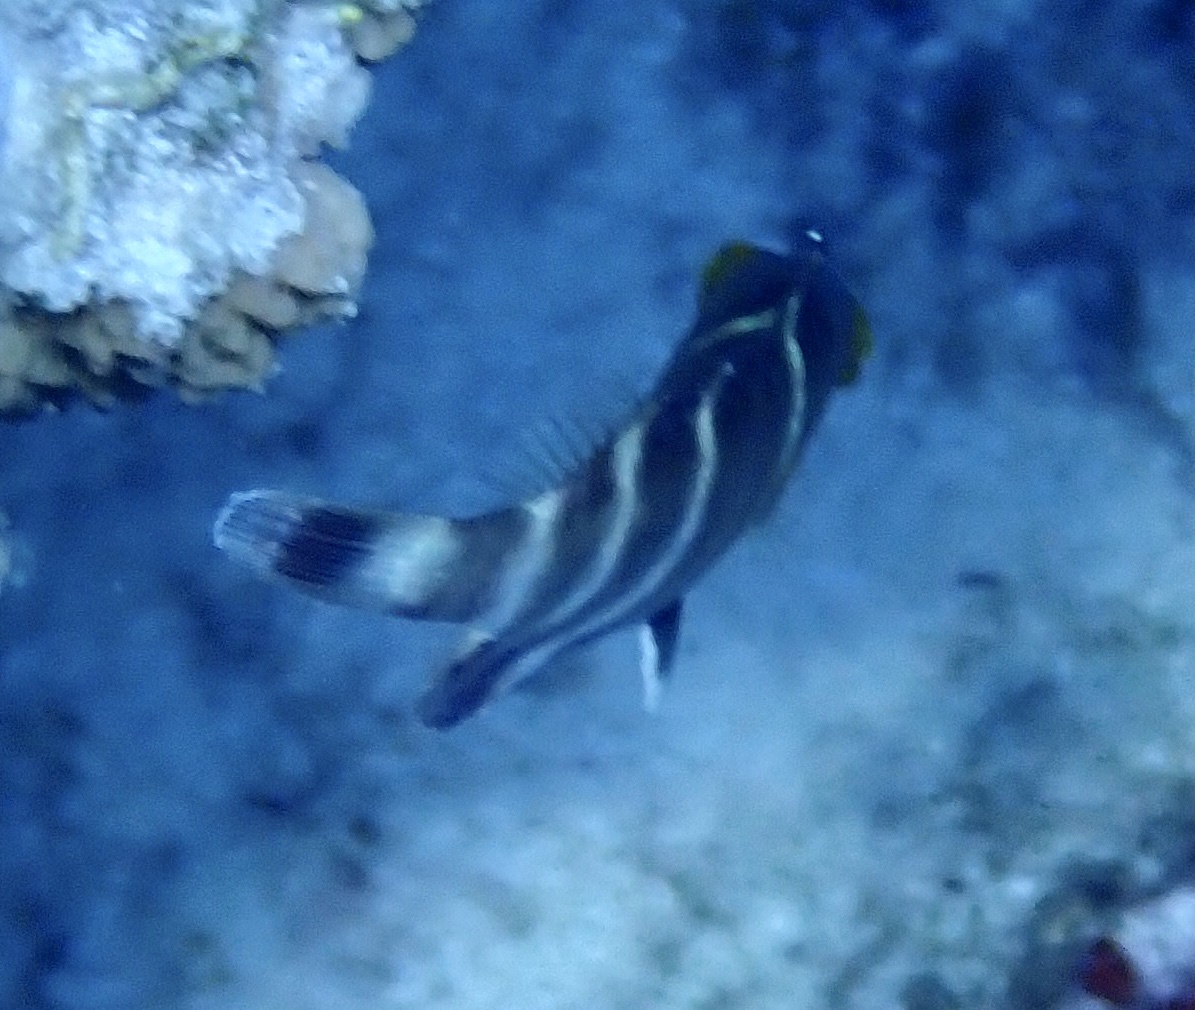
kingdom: Animalia
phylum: Chordata
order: Perciformes
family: Labridae
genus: Cheilinus
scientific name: Cheilinus fasciatus
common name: Red-breasted wrasse
